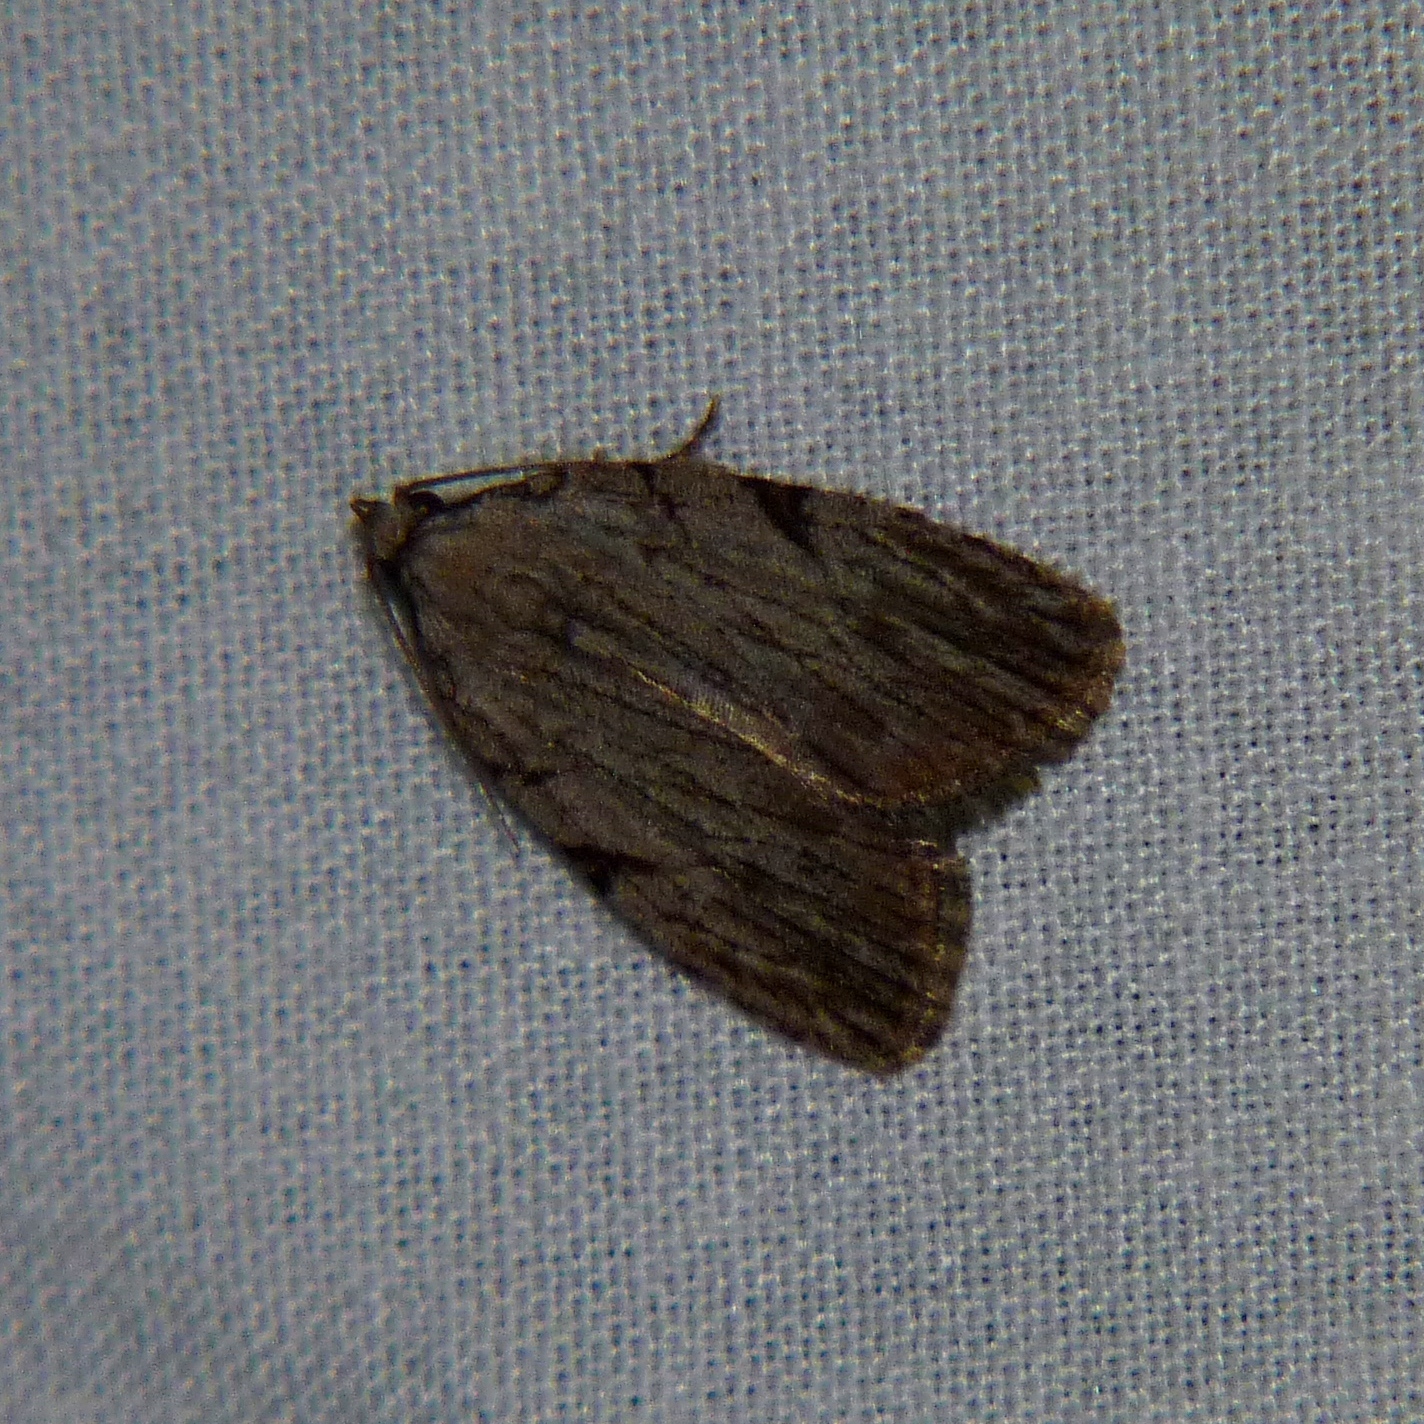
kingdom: Animalia
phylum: Arthropoda
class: Insecta
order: Lepidoptera
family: Noctuidae
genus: Balsa
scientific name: Balsa tristrigella
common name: Three-lined balsa moth
